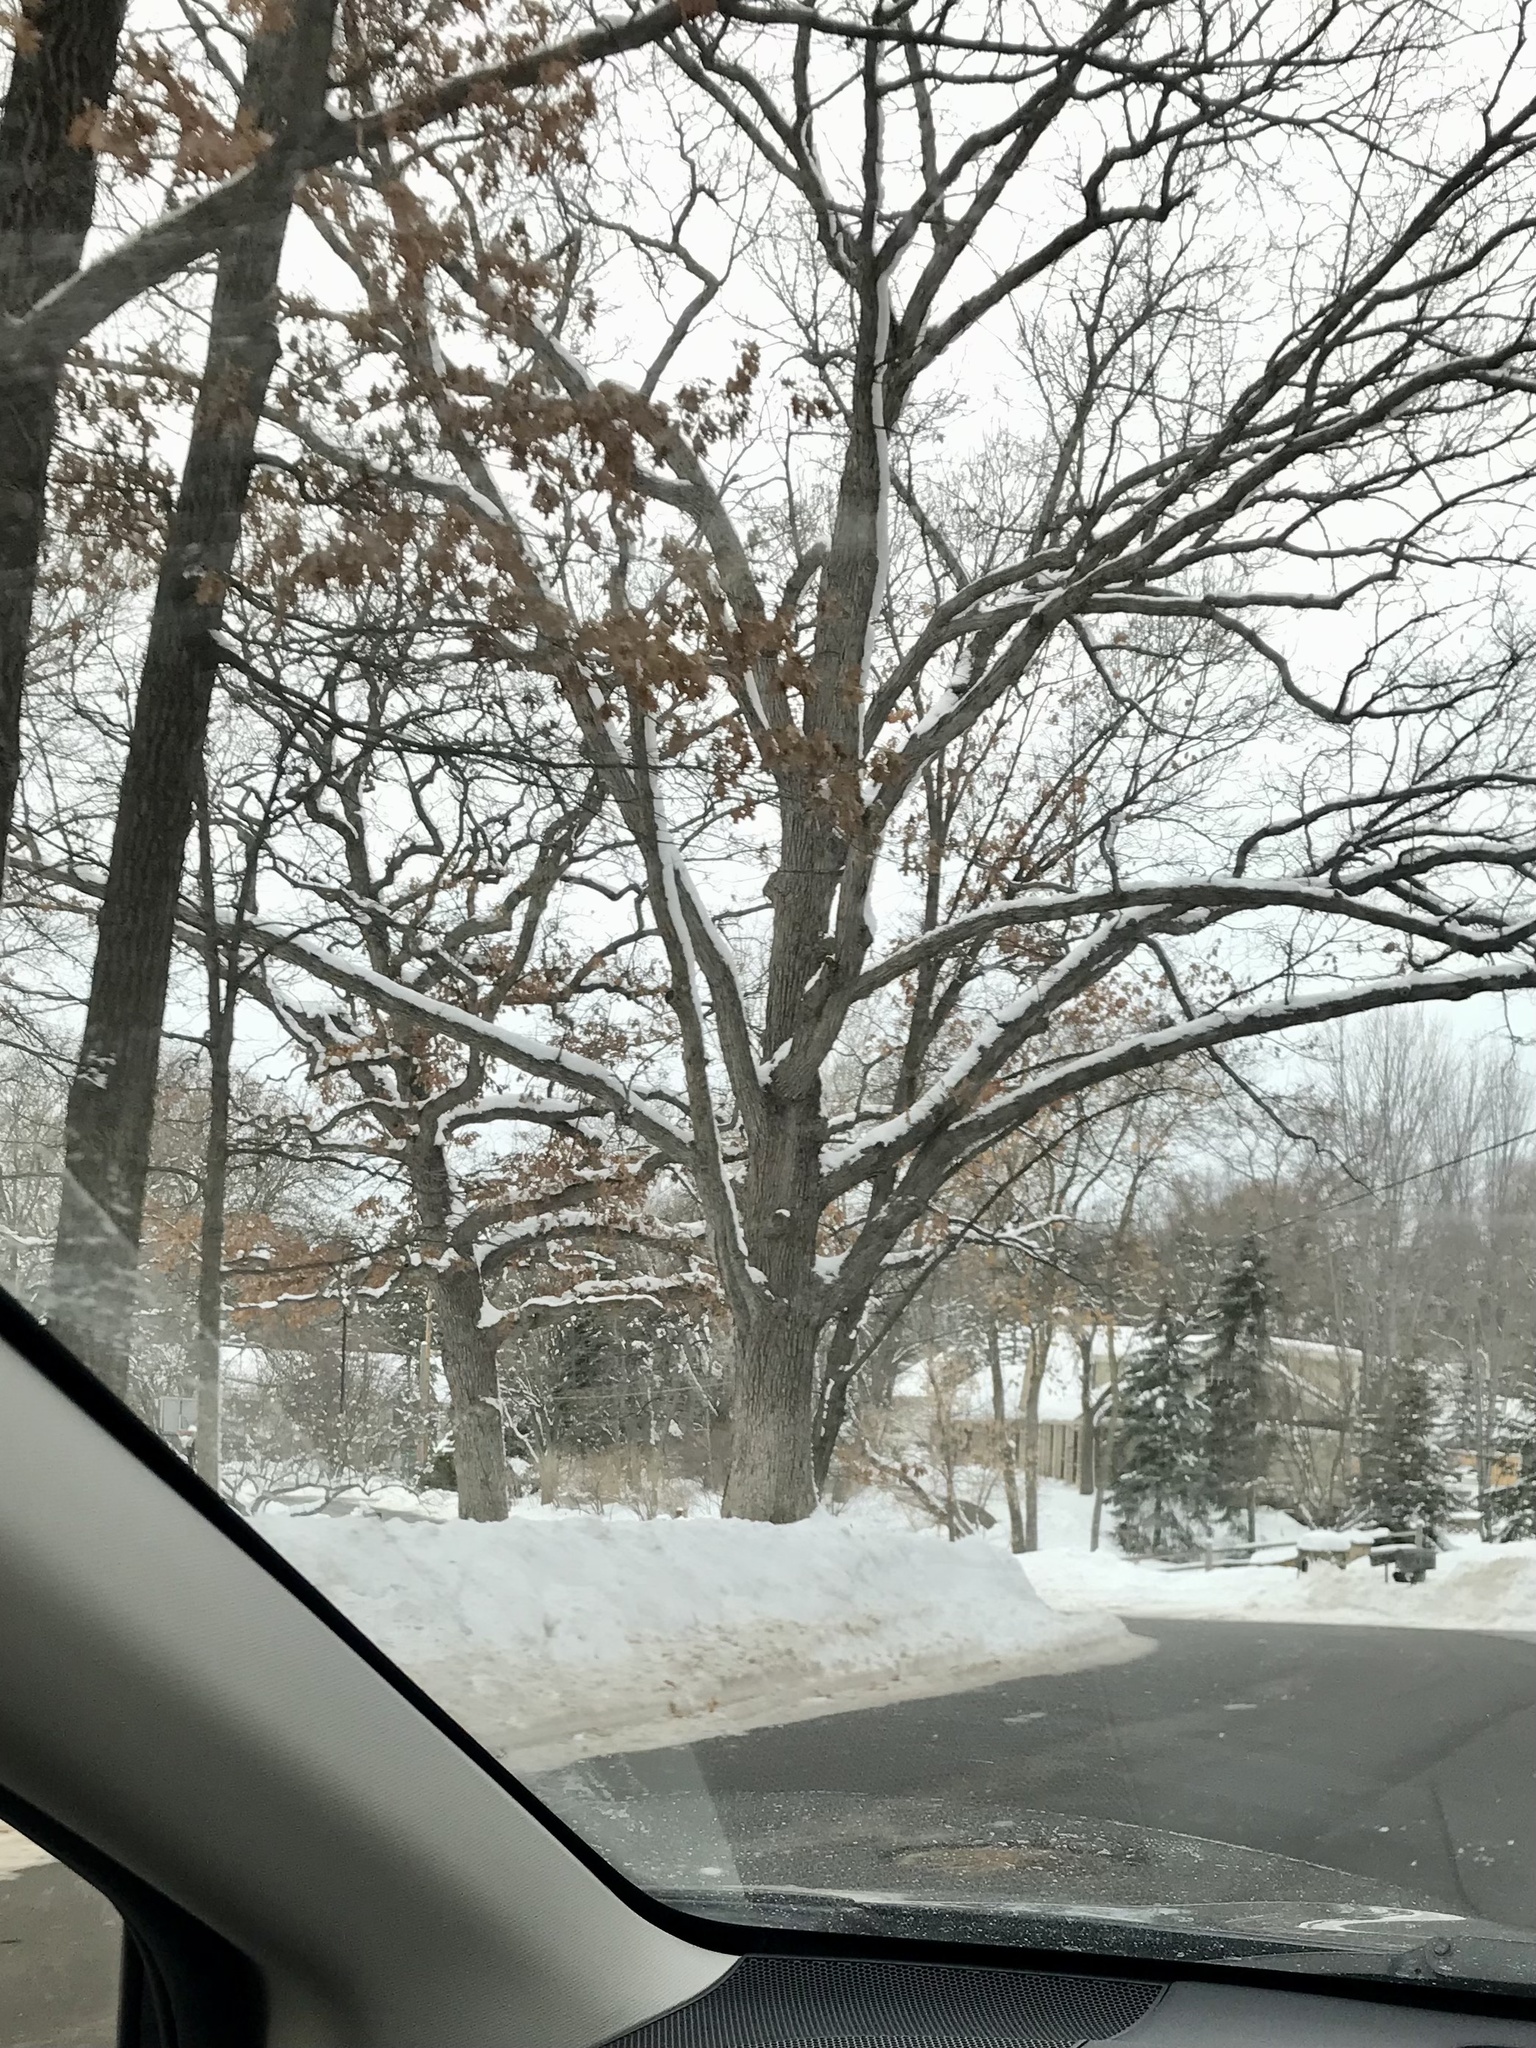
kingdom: Plantae
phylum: Tracheophyta
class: Magnoliopsida
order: Fagales
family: Fagaceae
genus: Quercus
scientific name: Quercus alba
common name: White oak
